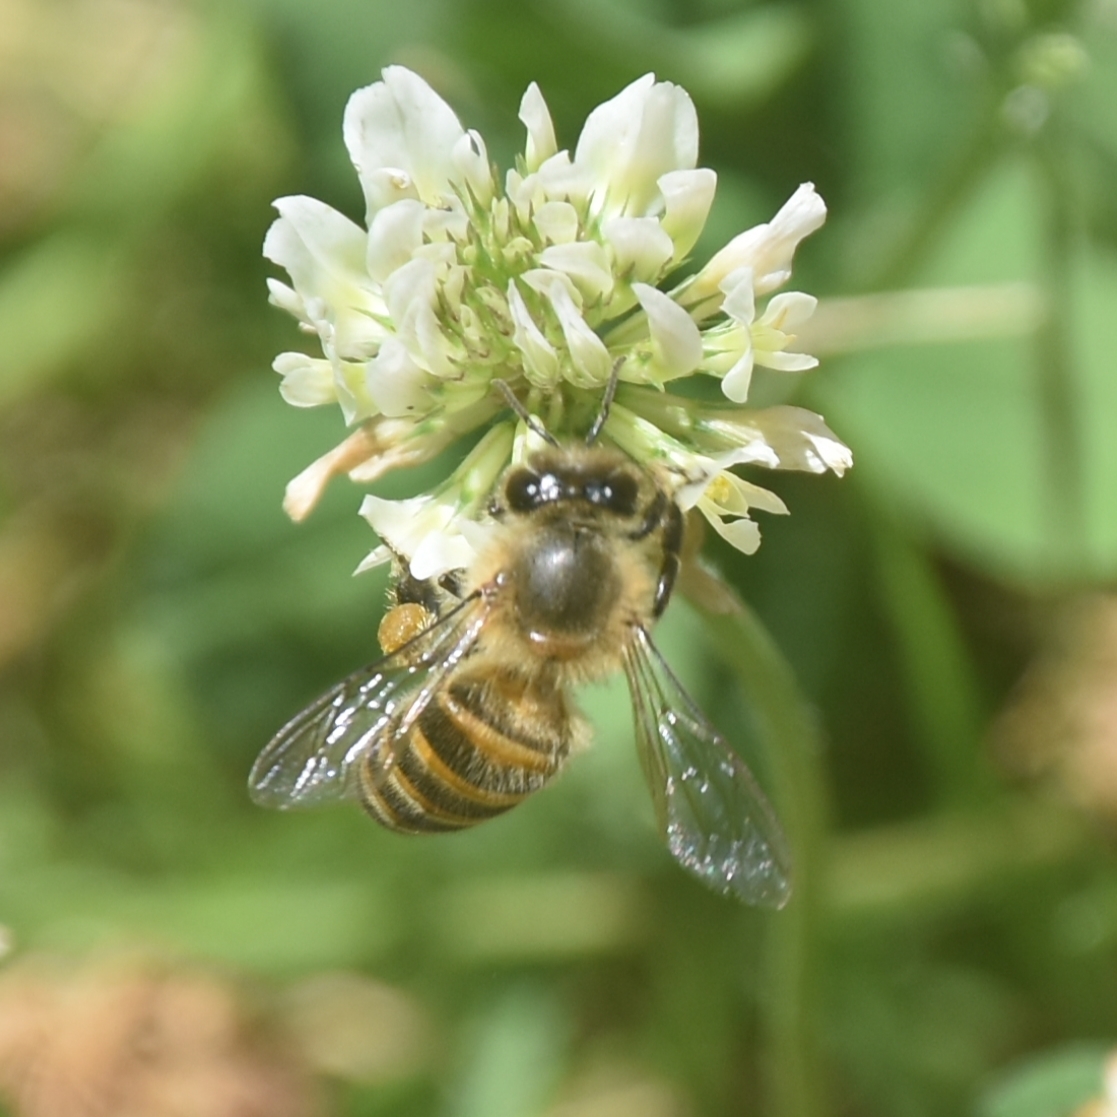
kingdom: Animalia
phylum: Arthropoda
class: Insecta
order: Hymenoptera
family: Apidae
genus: Apis
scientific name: Apis cerana
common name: Honey bee
